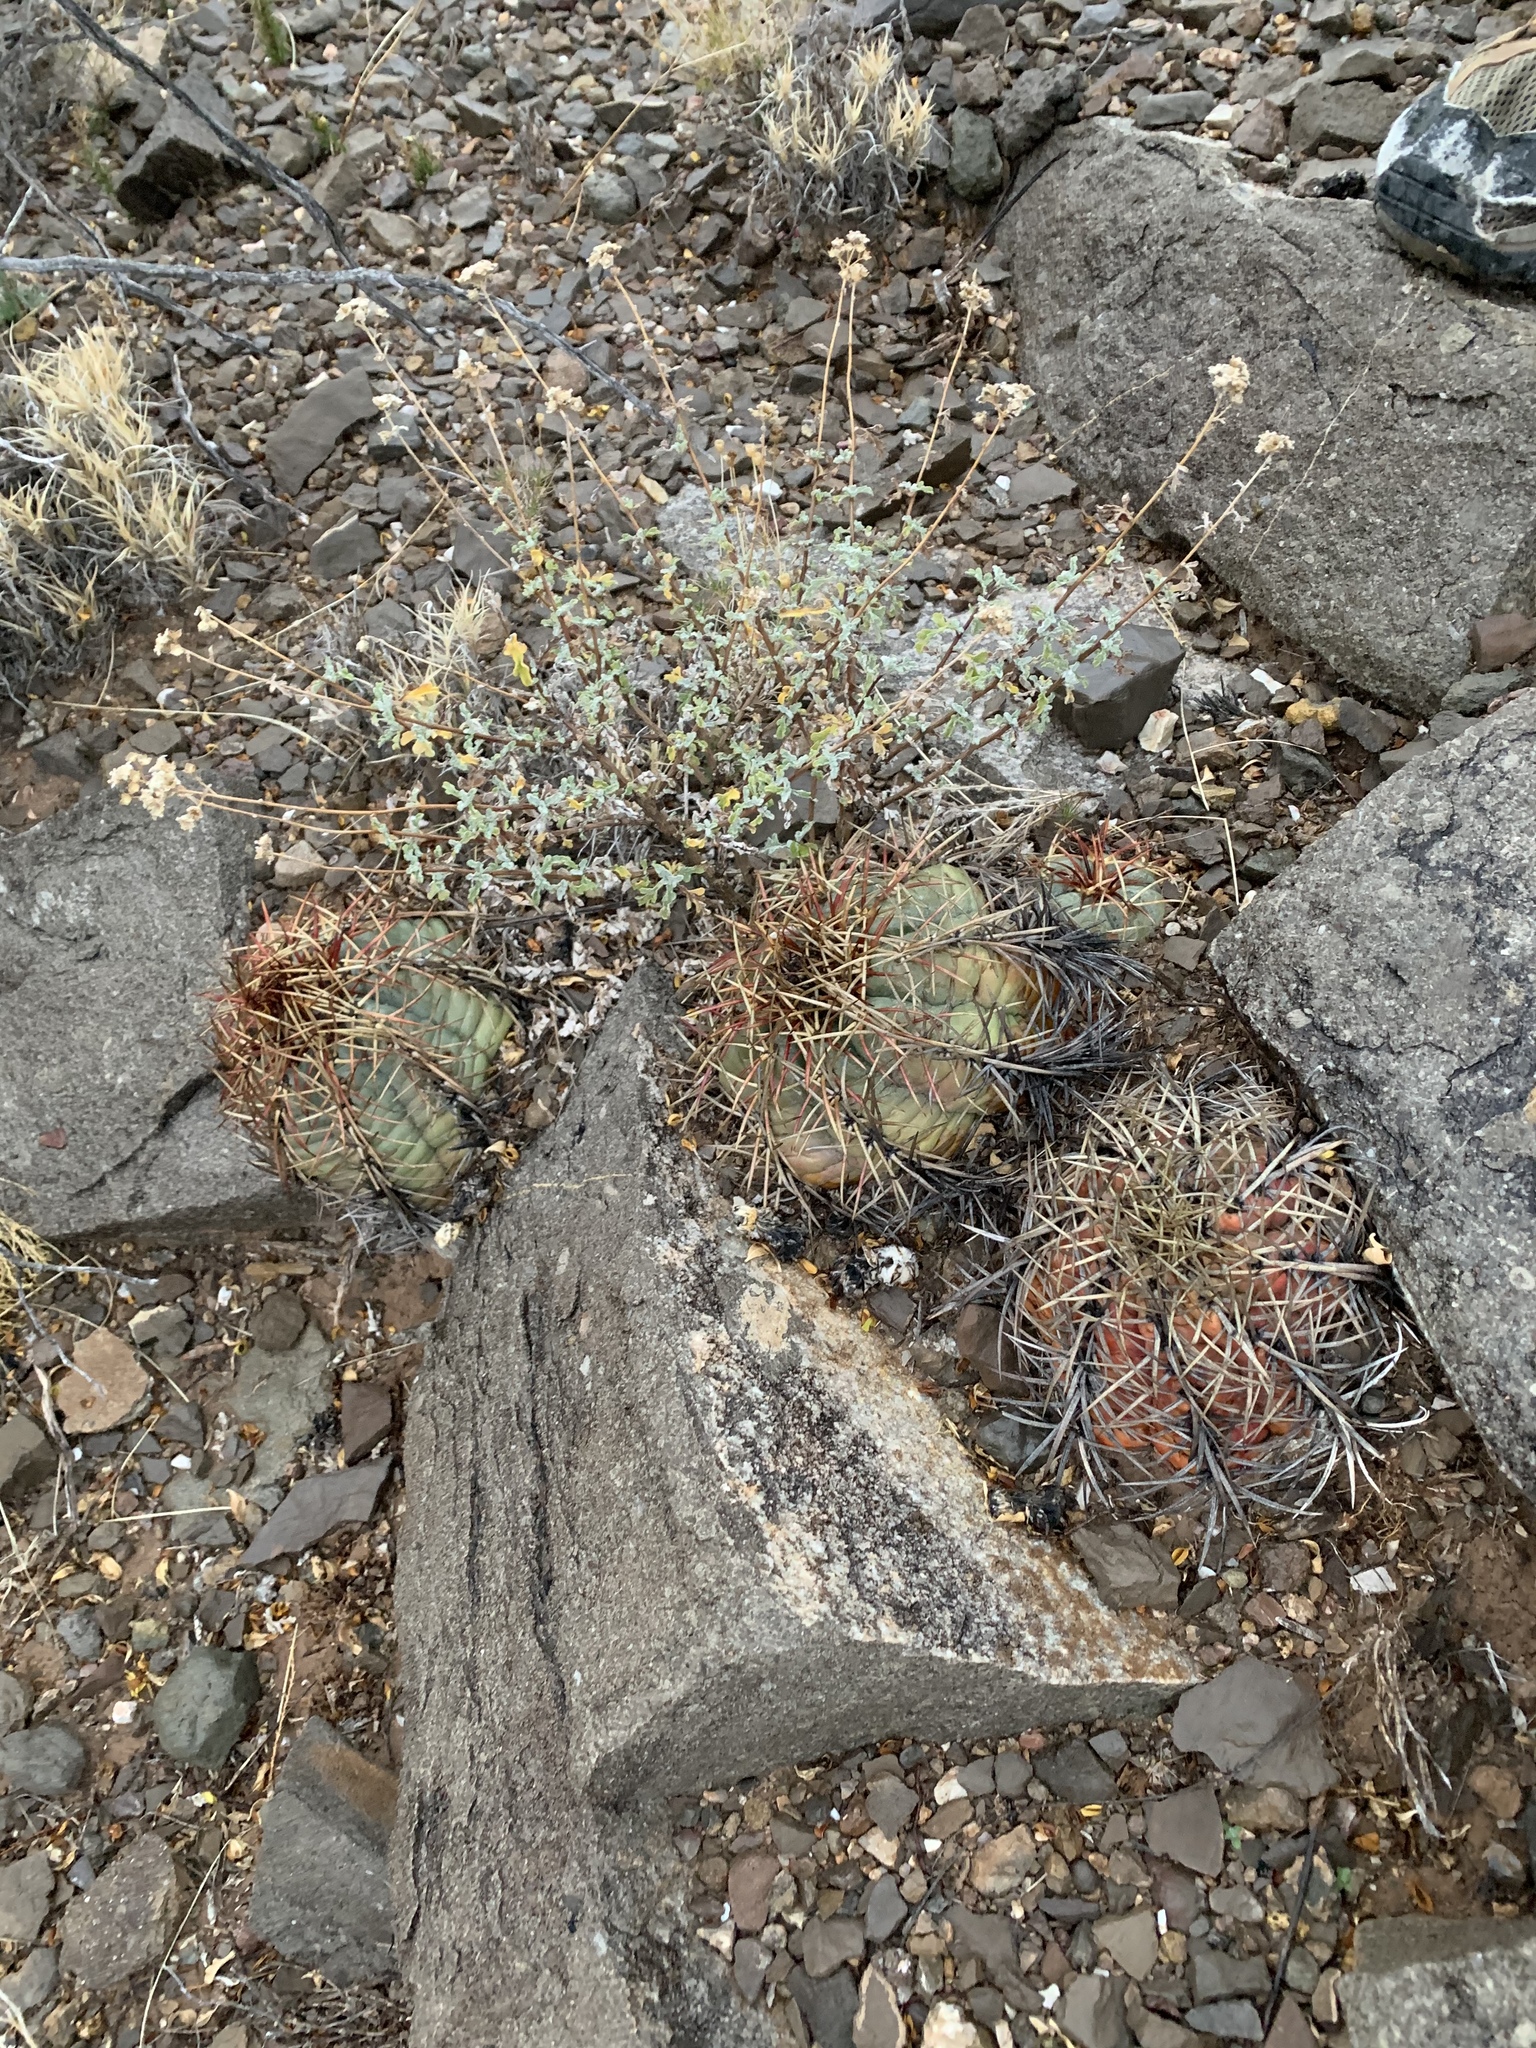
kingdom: Plantae
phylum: Tracheophyta
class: Magnoliopsida
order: Caryophyllales
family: Cactaceae
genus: Echinocactus
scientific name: Echinocactus horizonthalonius
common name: Devilshead
